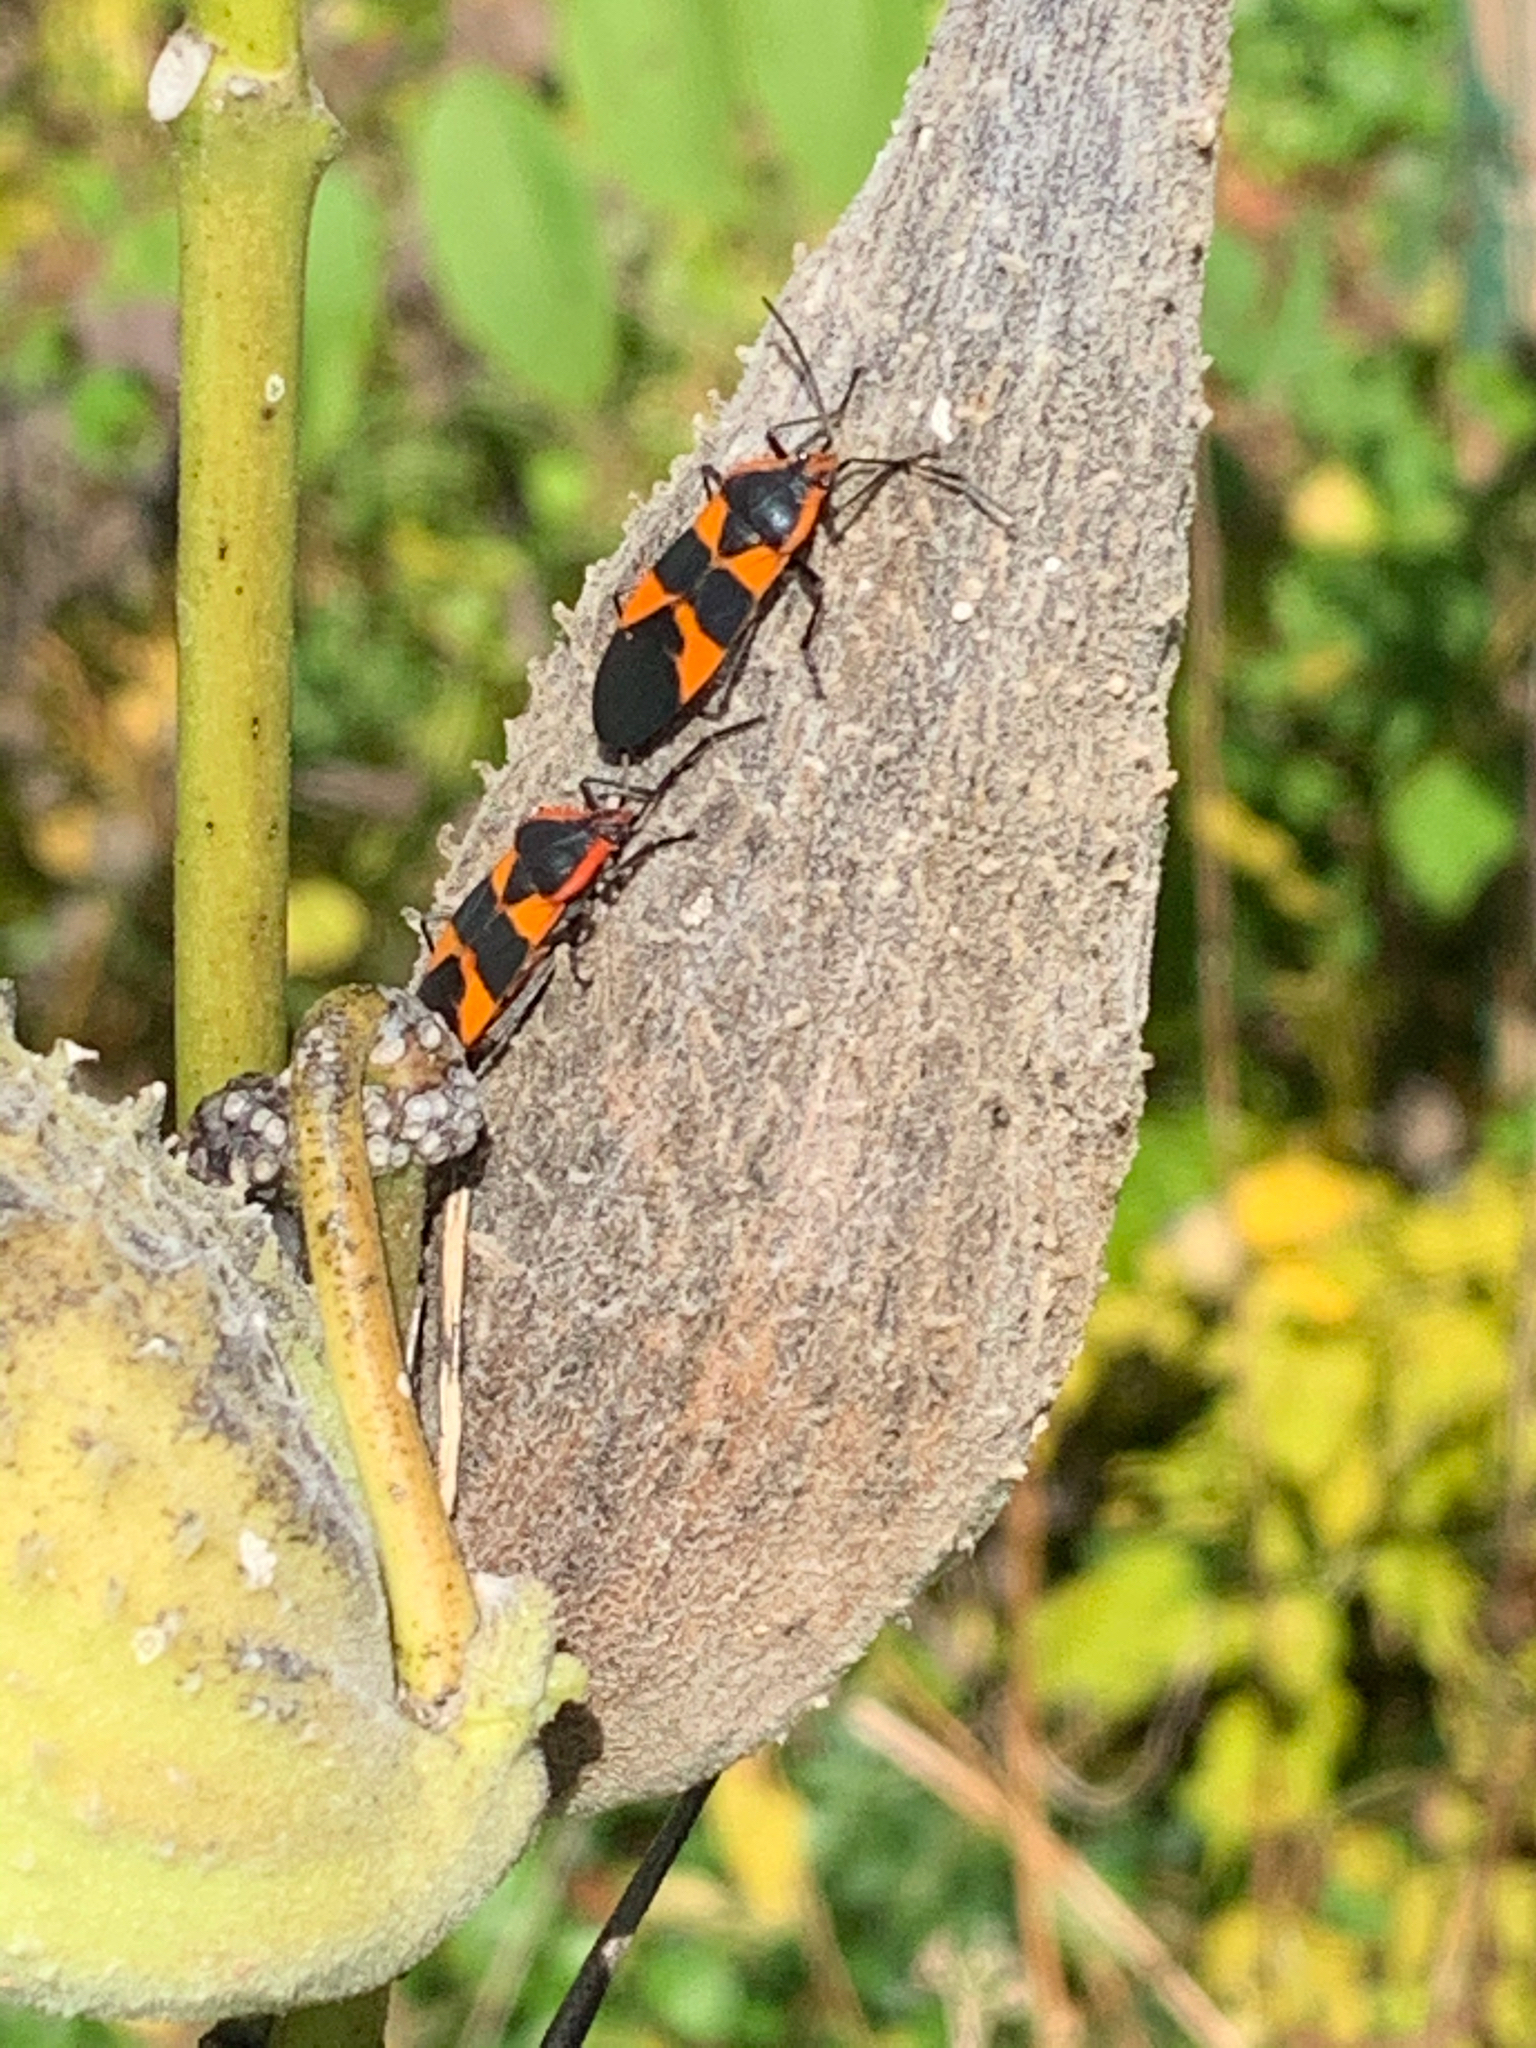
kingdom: Animalia
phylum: Arthropoda
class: Insecta
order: Hemiptera
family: Lygaeidae
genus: Oncopeltus
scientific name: Oncopeltus fasciatus
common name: Large milkweed bug
